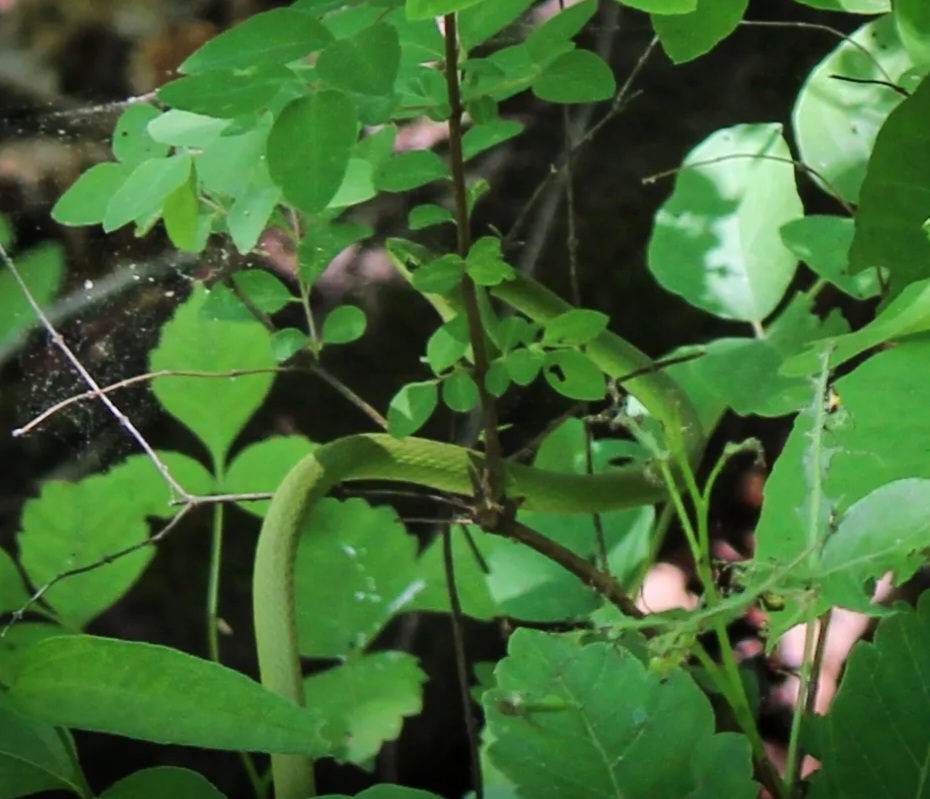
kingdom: Animalia
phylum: Chordata
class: Squamata
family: Colubridae
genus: Opheodrys
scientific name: Opheodrys aestivus
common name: Rough greensnake
